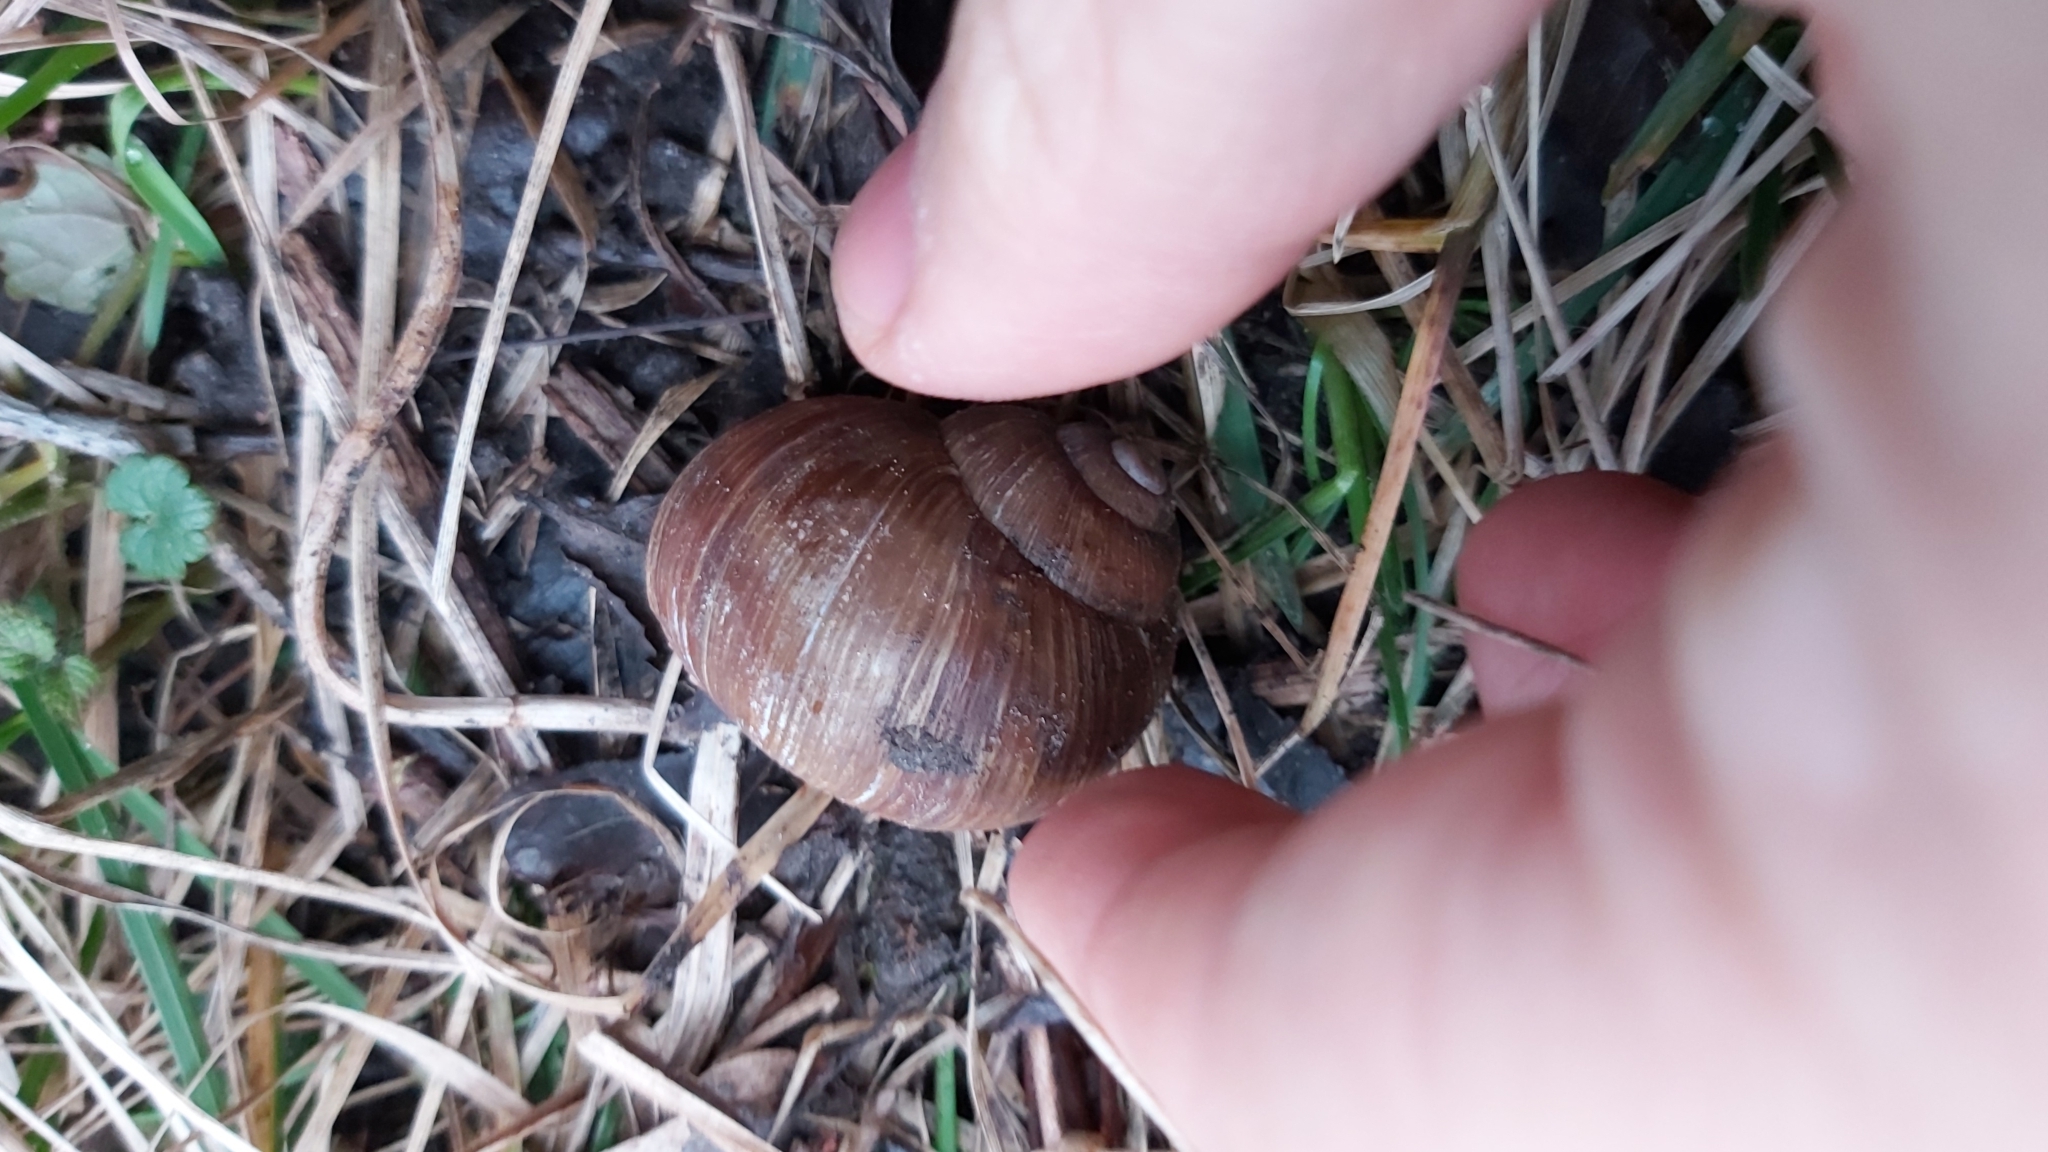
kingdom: Animalia
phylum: Mollusca
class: Gastropoda
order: Stylommatophora
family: Helicidae
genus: Helix
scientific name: Helix pomatia
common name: Roman snail
